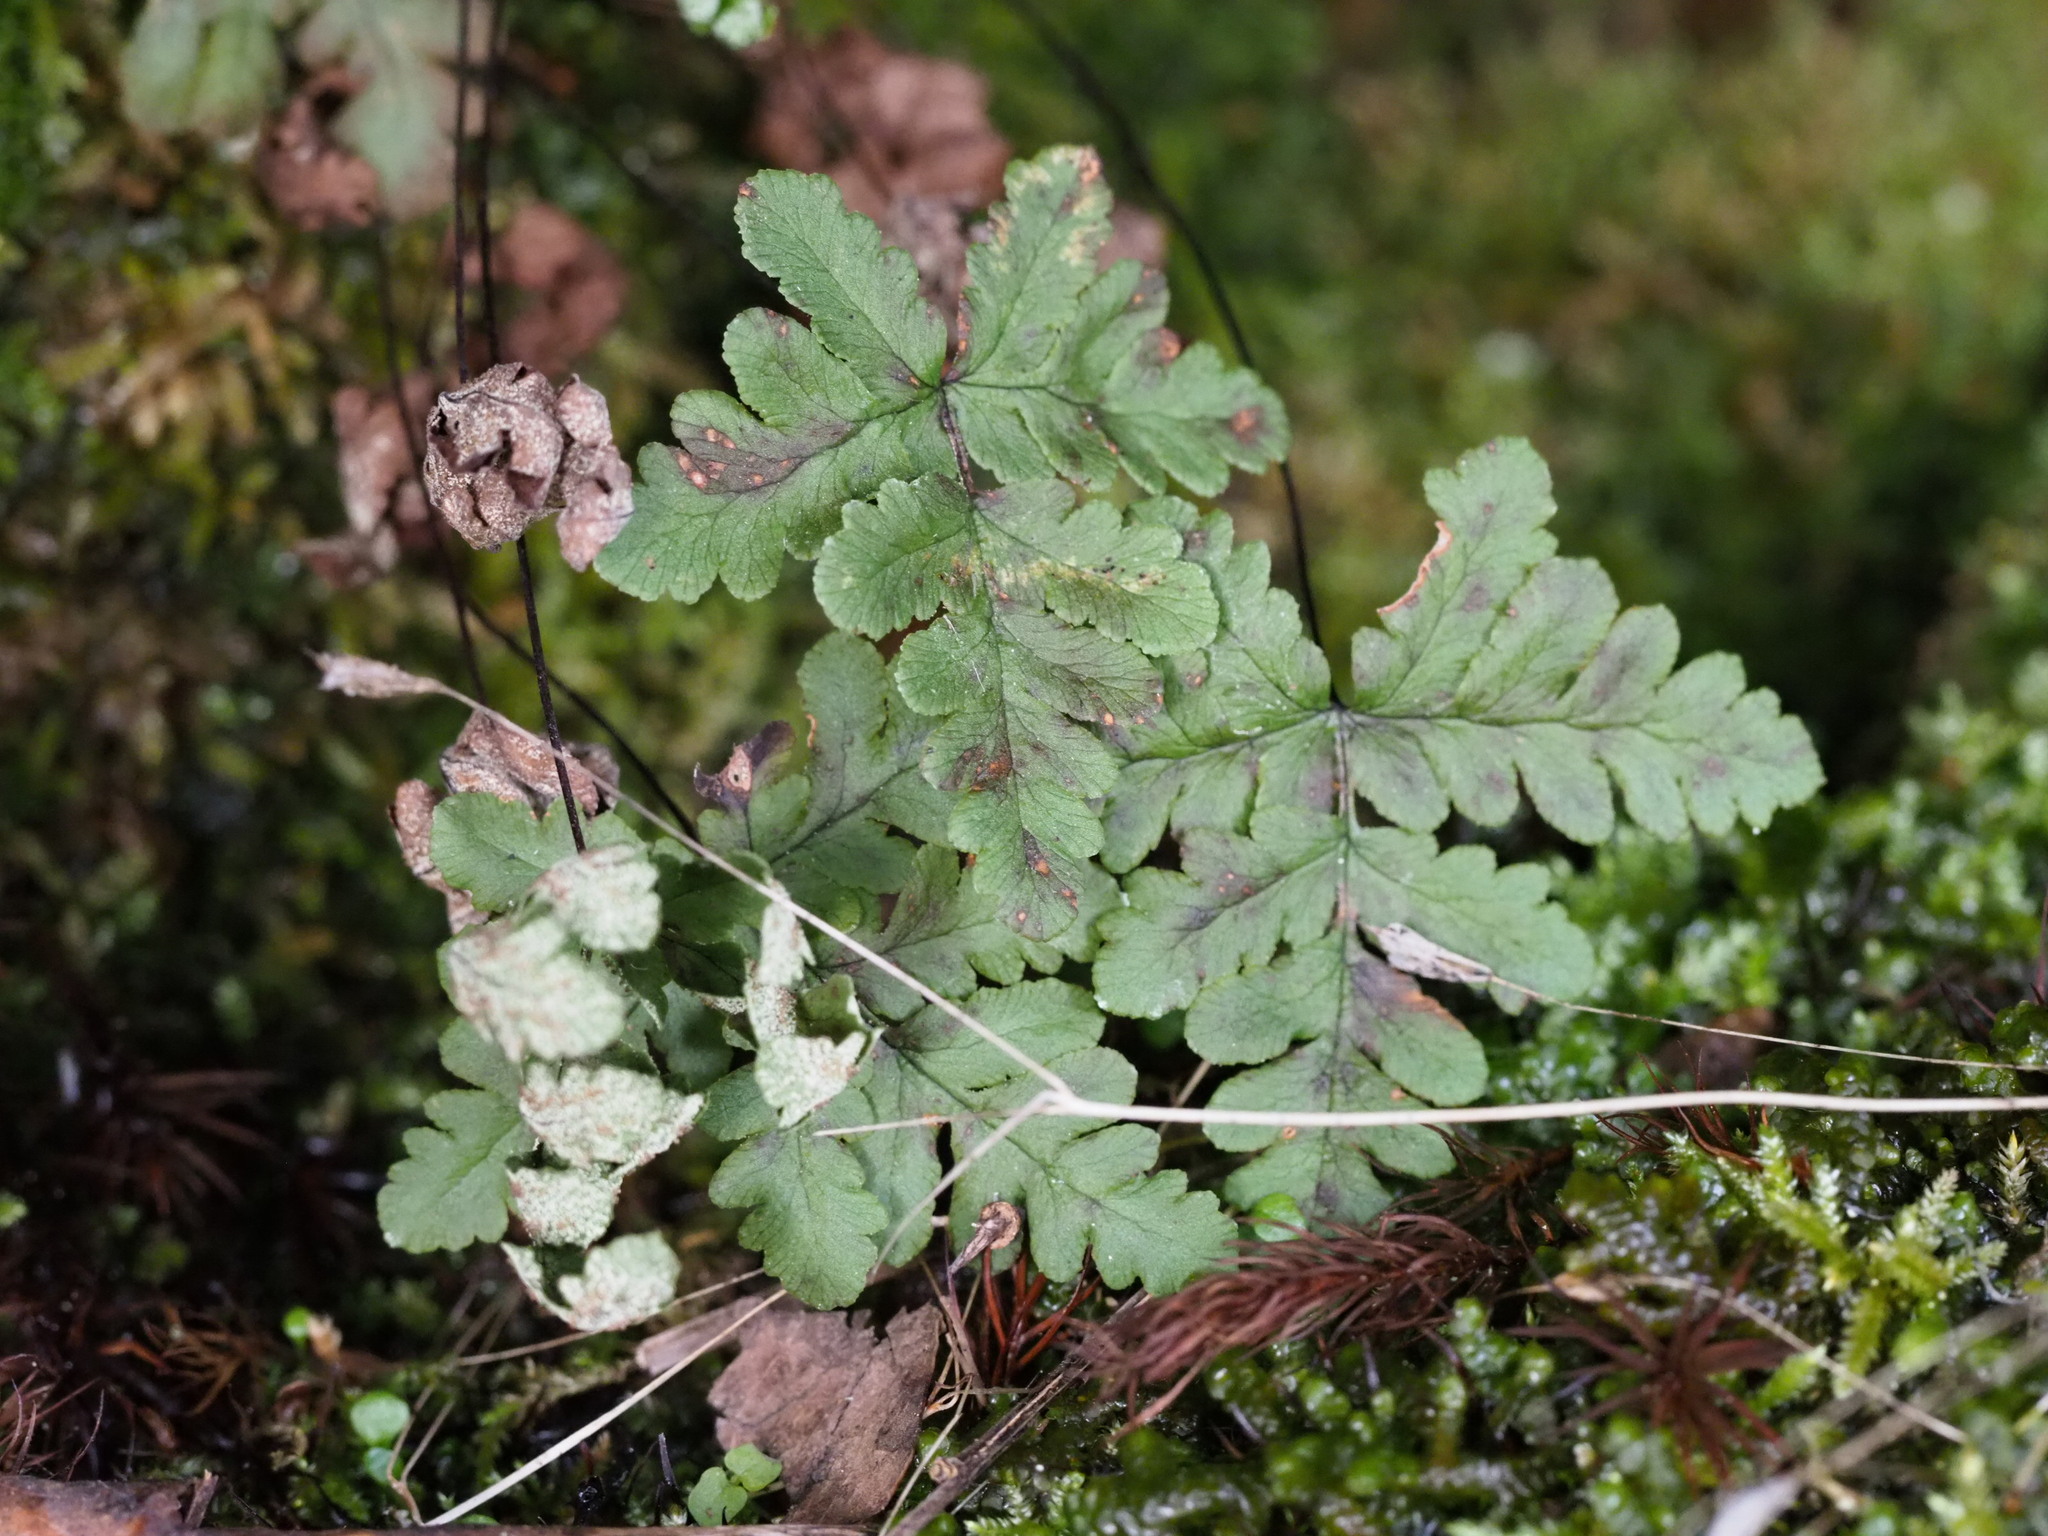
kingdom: Plantae
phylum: Tracheophyta
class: Polypodiopsida
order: Polypodiales
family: Pteridaceae
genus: Pentagramma
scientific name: Pentagramma triangularis
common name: Gold fern
